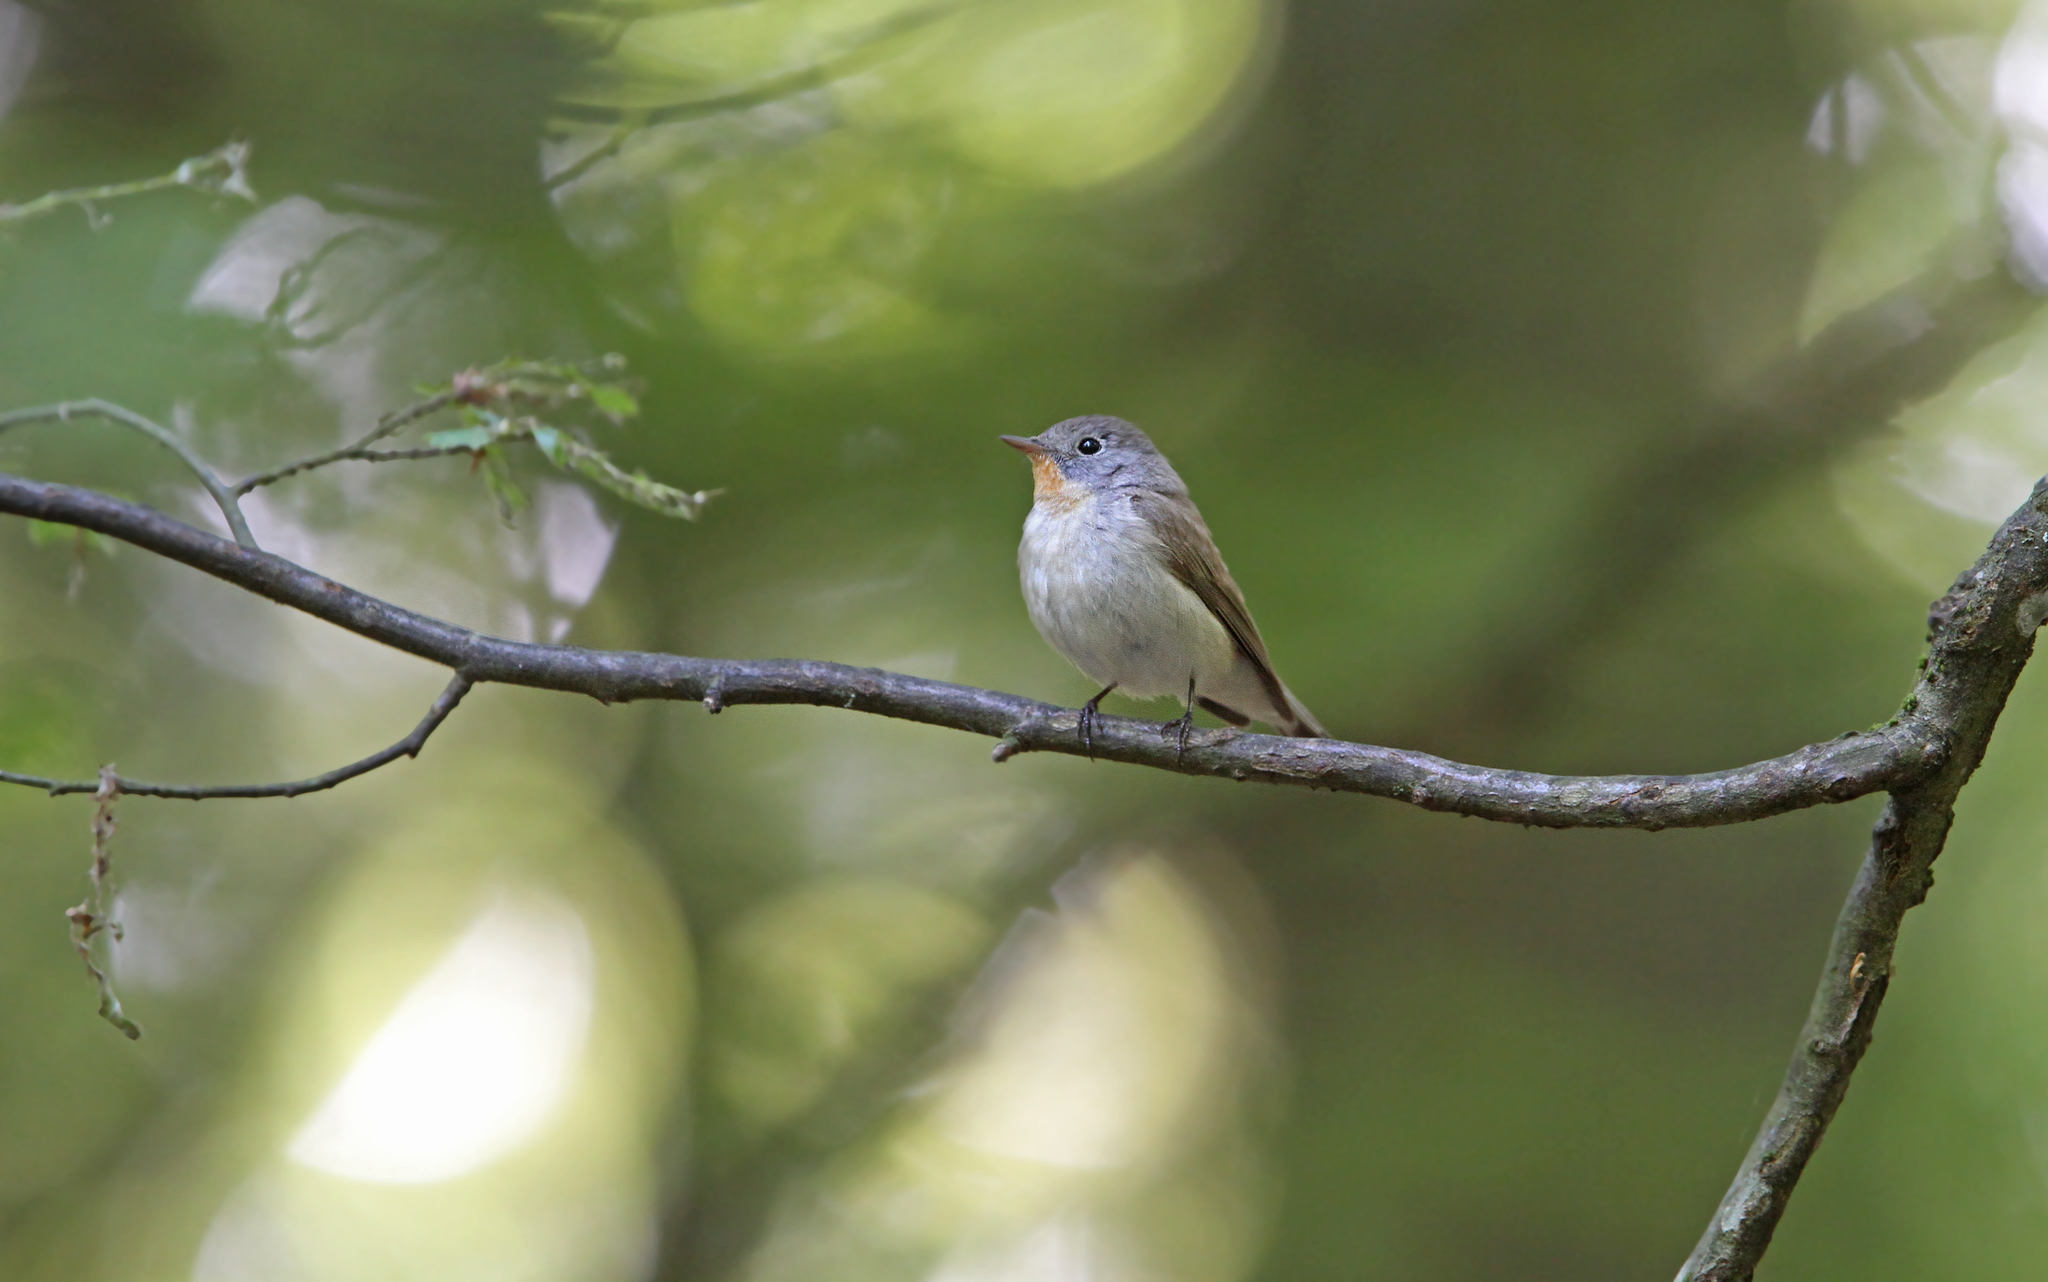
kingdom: Animalia
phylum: Chordata
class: Aves
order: Passeriformes
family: Muscicapidae
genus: Ficedula
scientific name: Ficedula parva
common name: Red-breasted flycatcher
